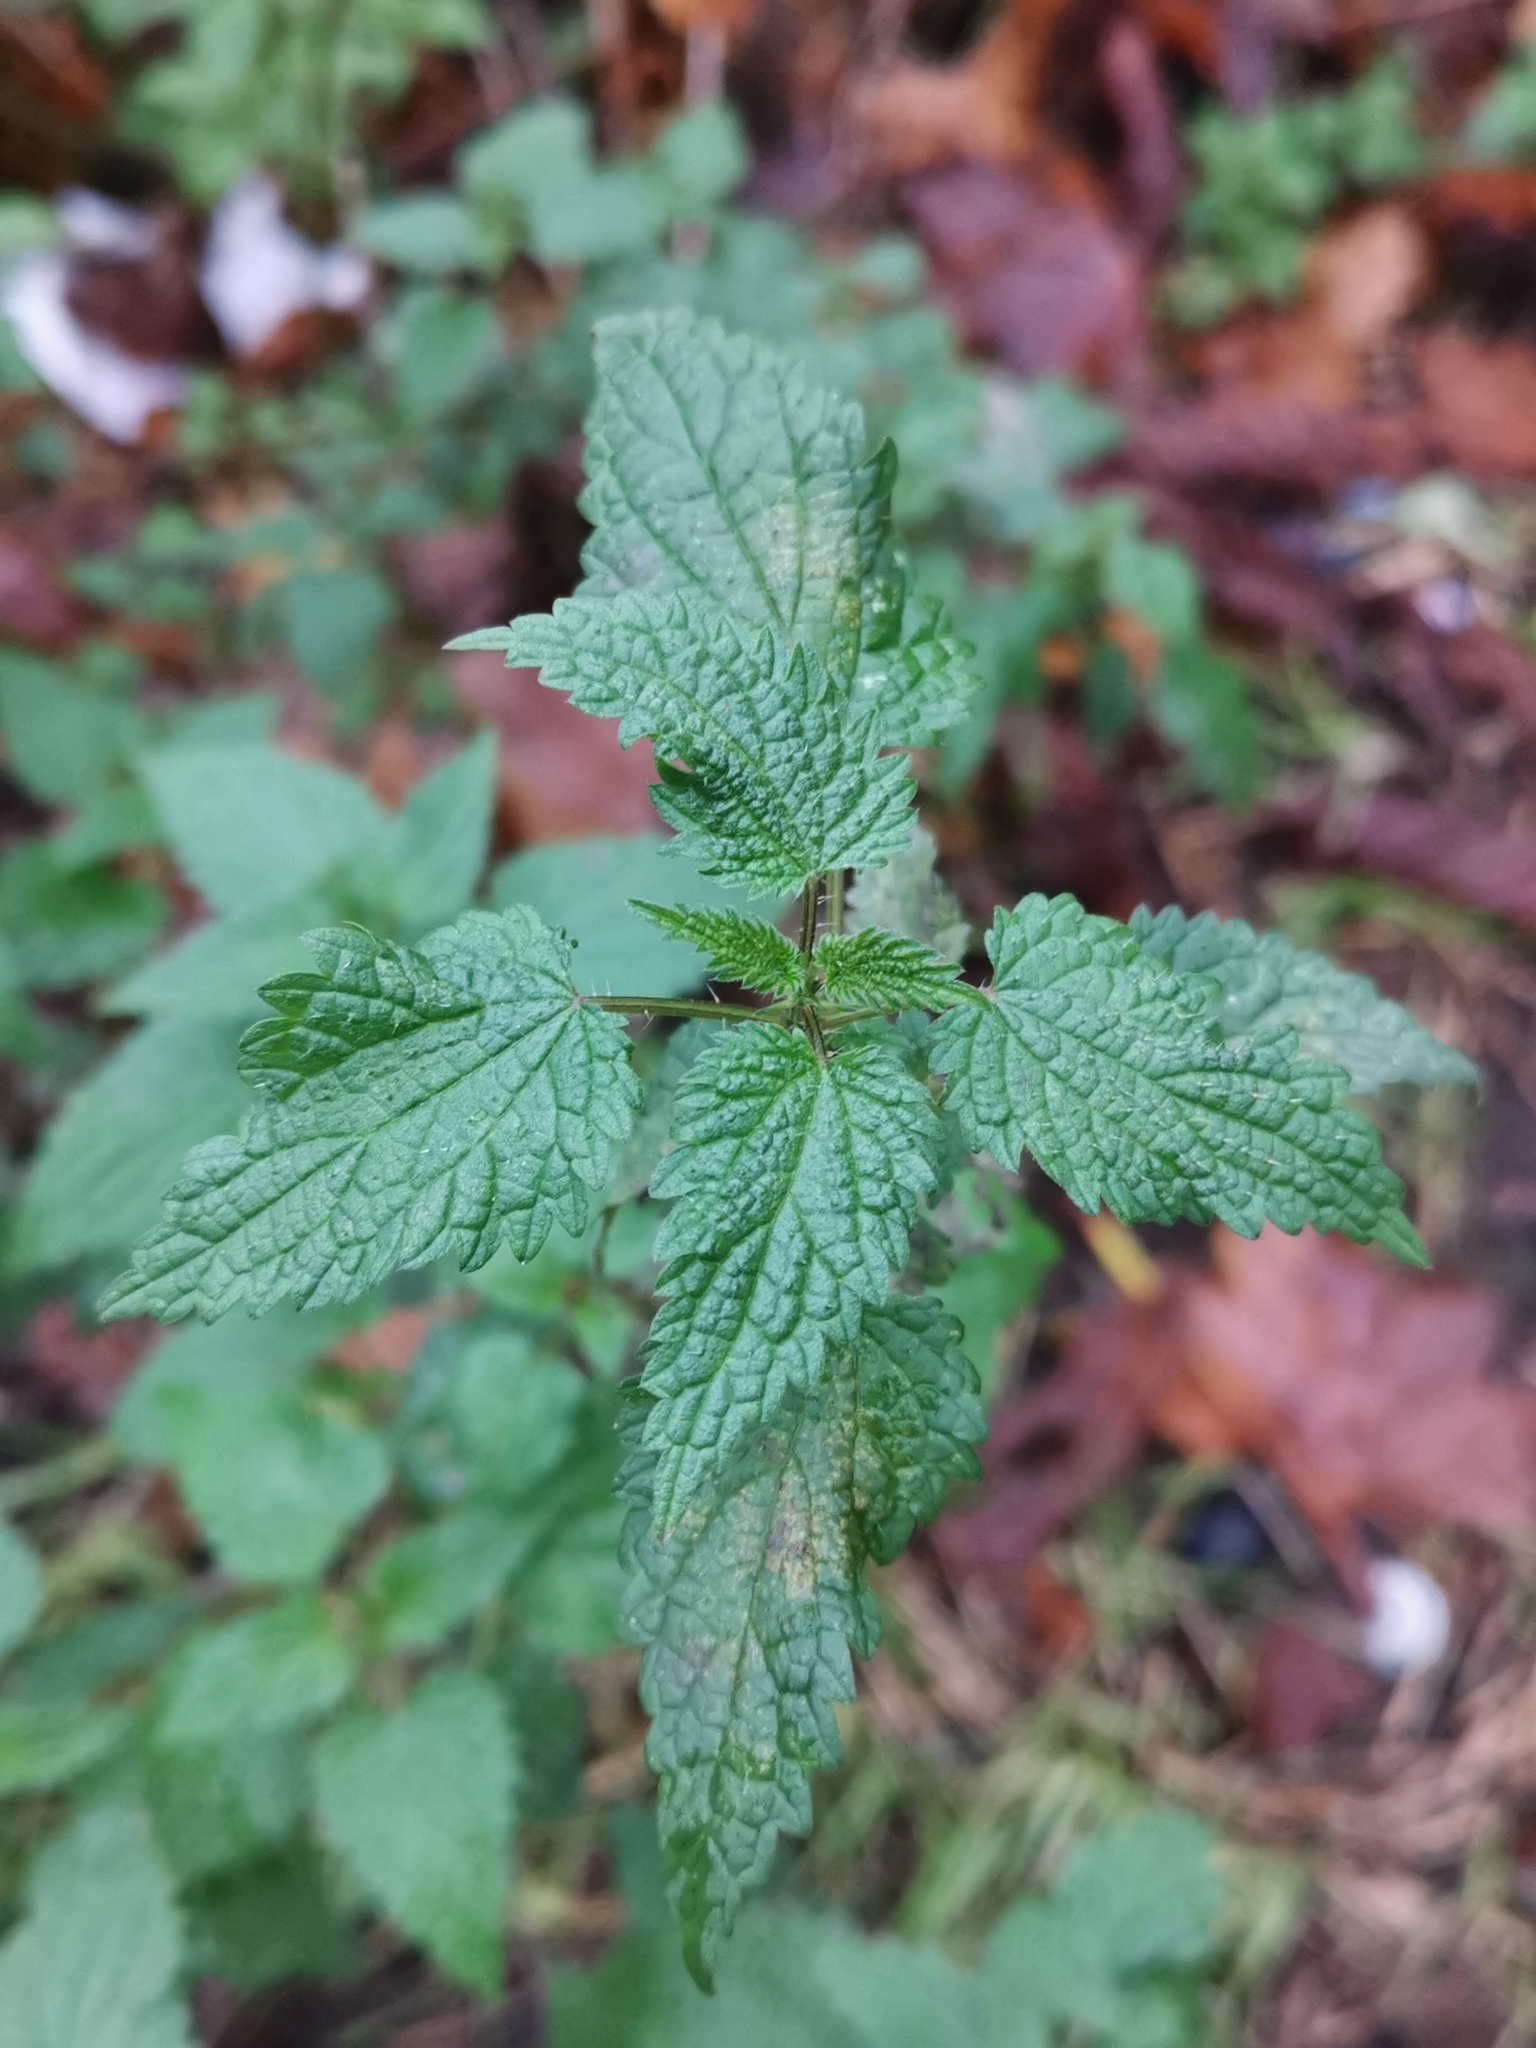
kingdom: Plantae
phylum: Tracheophyta
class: Magnoliopsida
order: Rosales
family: Urticaceae
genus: Urtica
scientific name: Urtica dioica
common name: Common nettle
